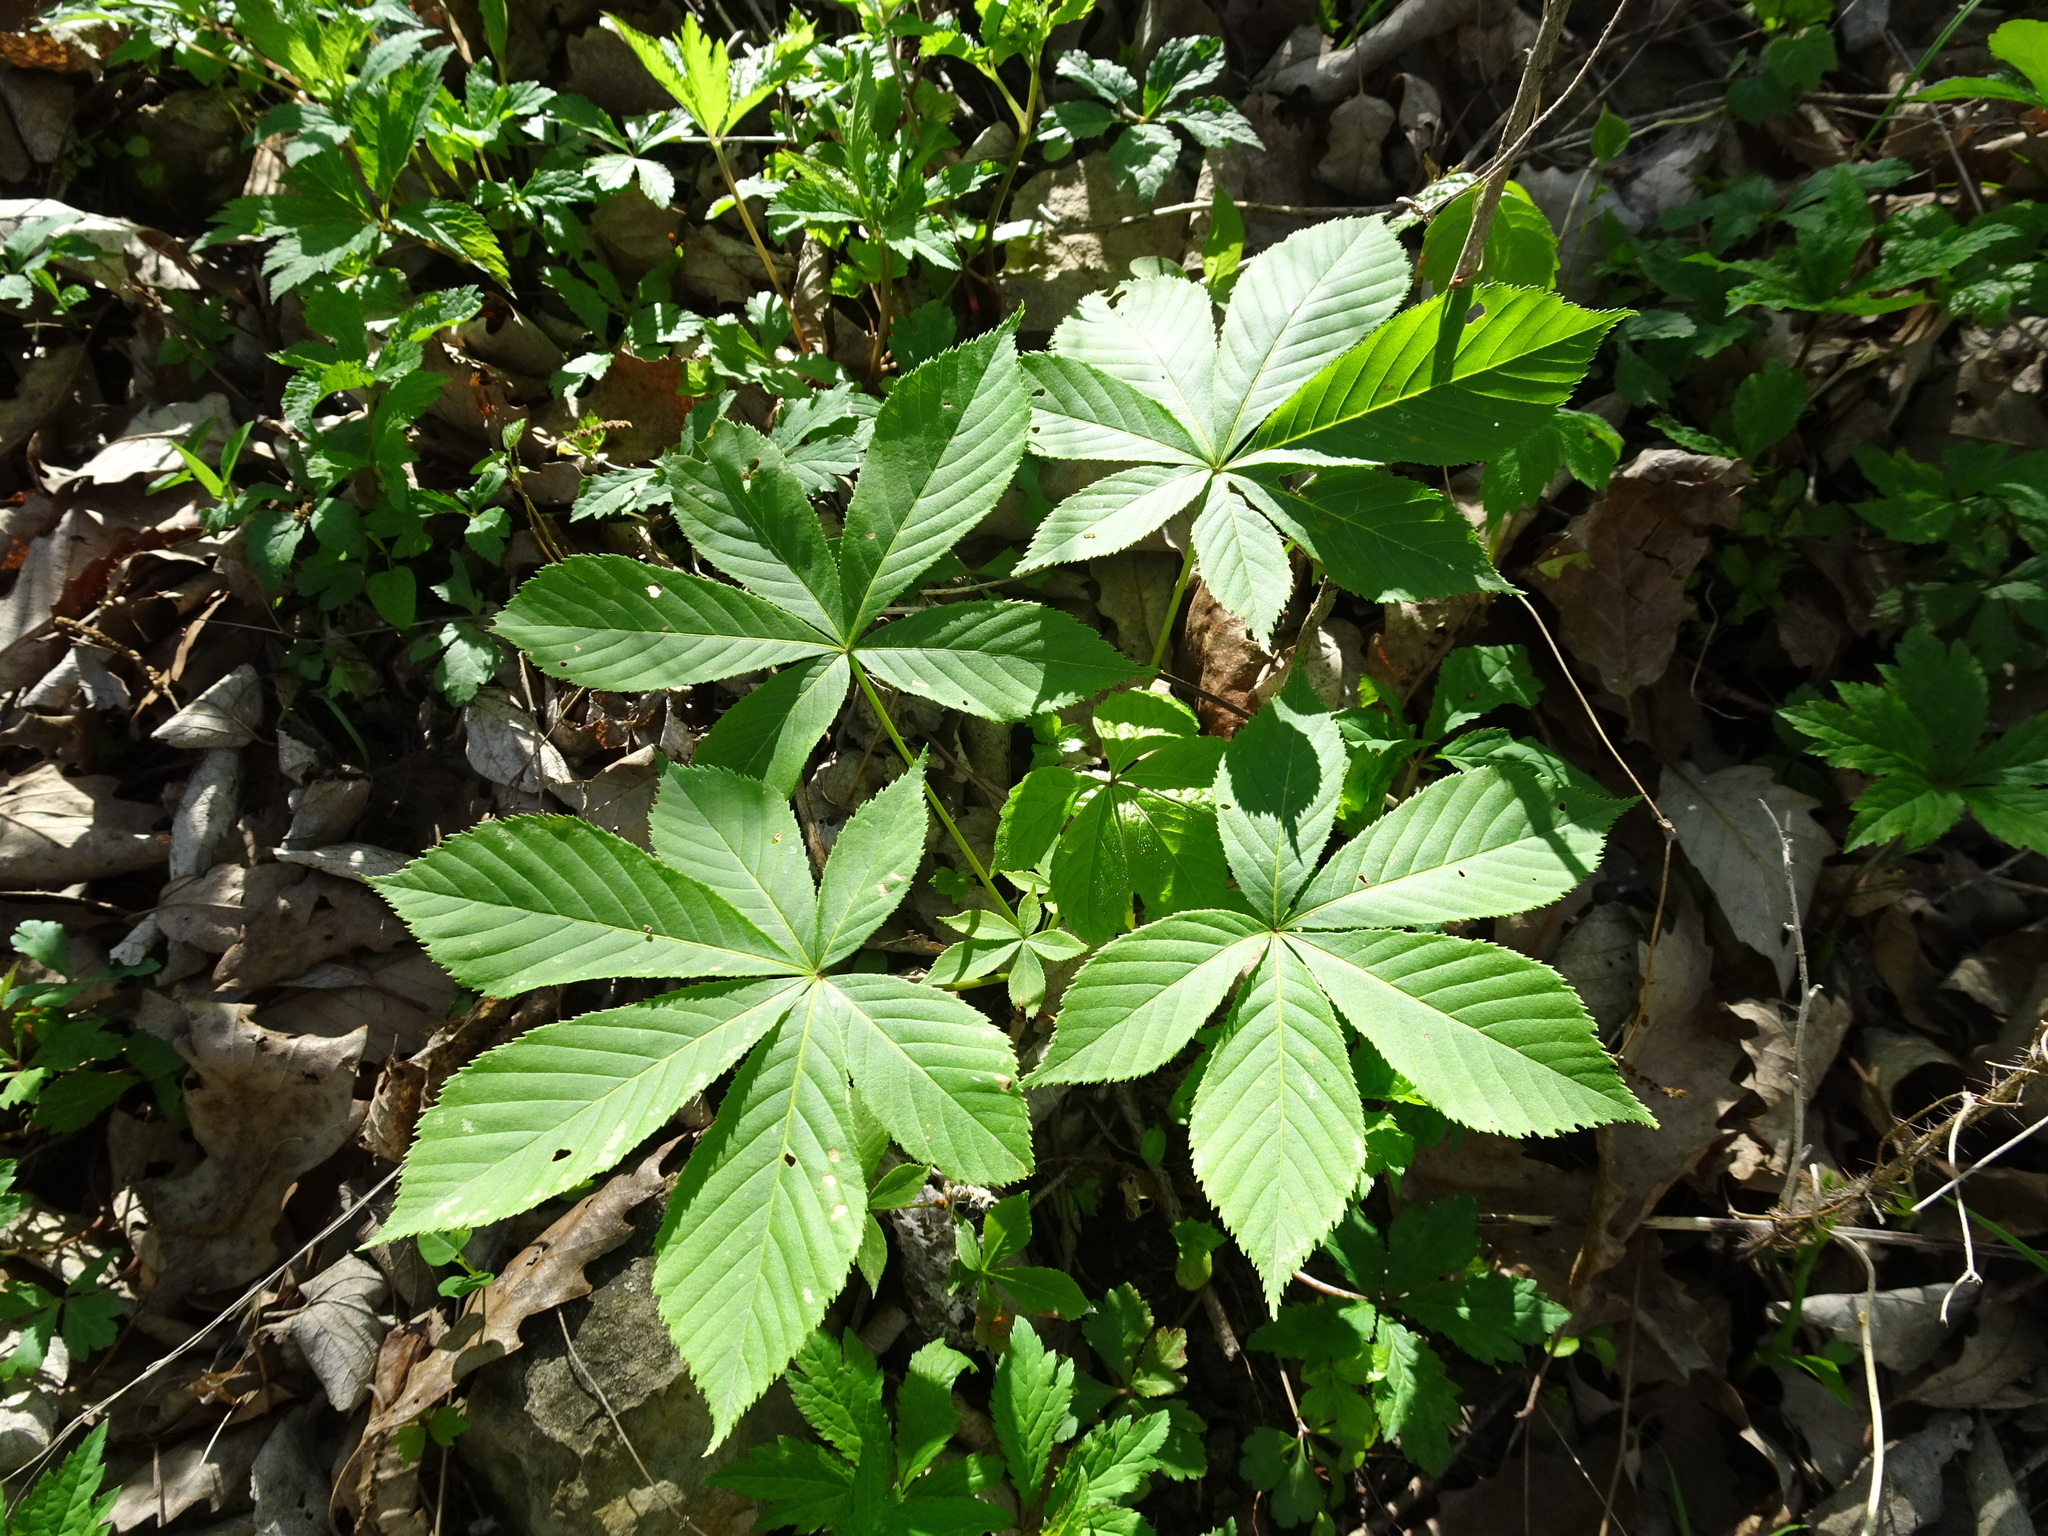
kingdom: Plantae
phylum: Tracheophyta
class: Magnoliopsida
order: Sapindales
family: Sapindaceae
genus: Aesculus
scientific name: Aesculus glabra
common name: Ohio buckeye
